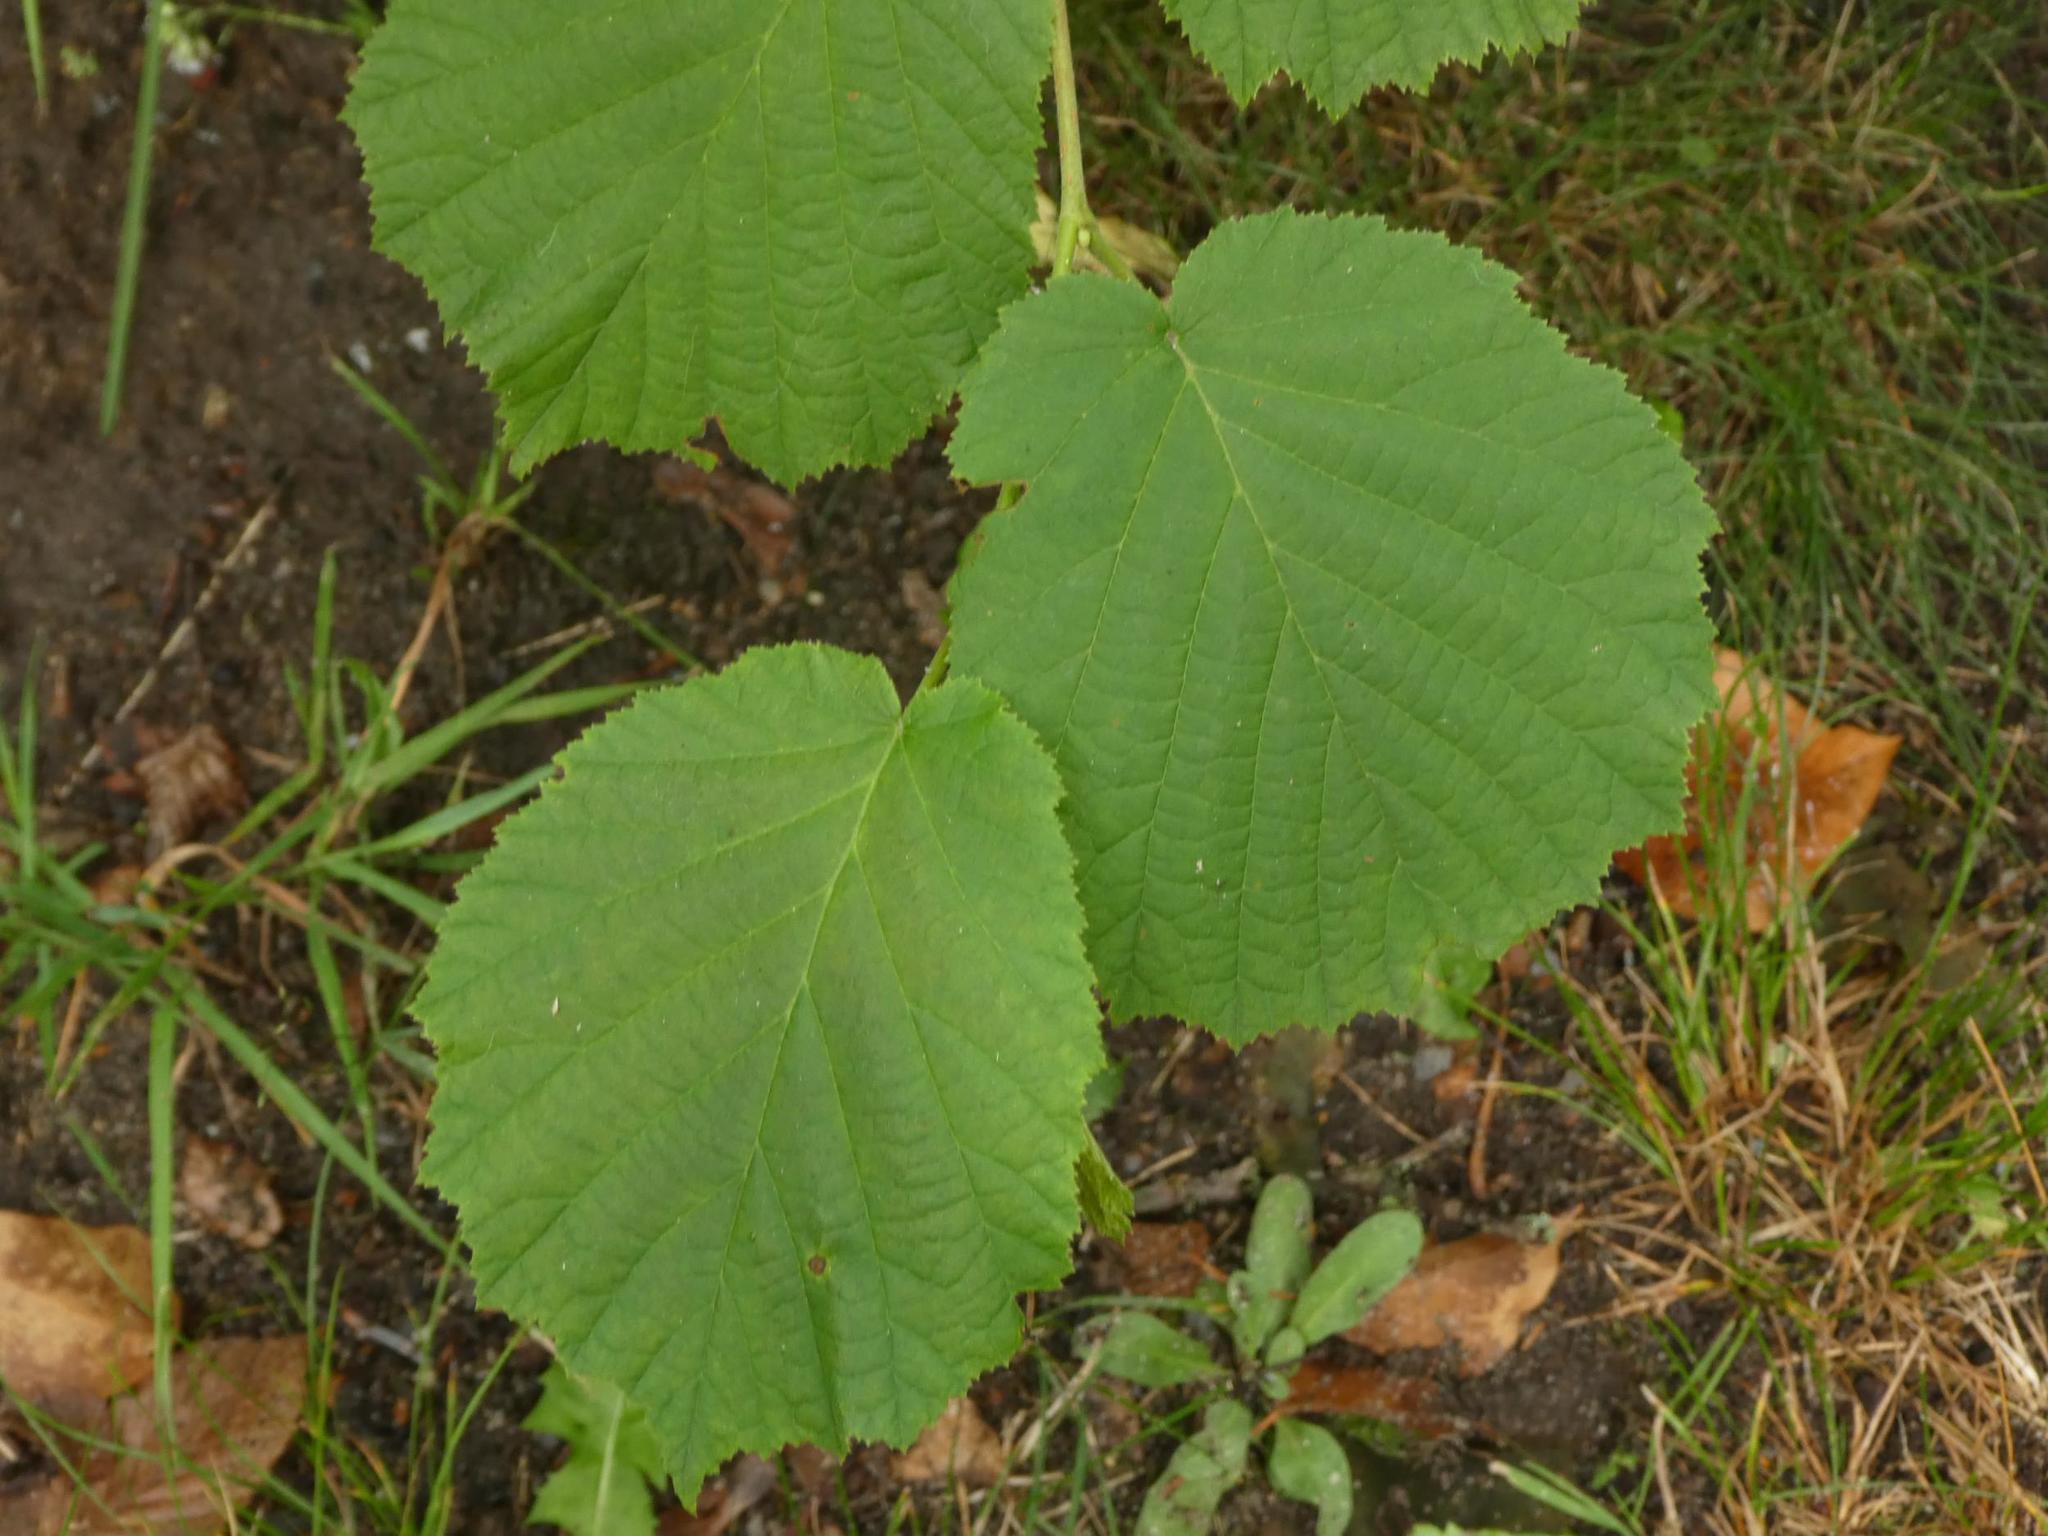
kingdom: Plantae
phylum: Tracheophyta
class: Magnoliopsida
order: Fagales
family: Betulaceae
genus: Corylus
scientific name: Corylus avellana
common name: European hazel
